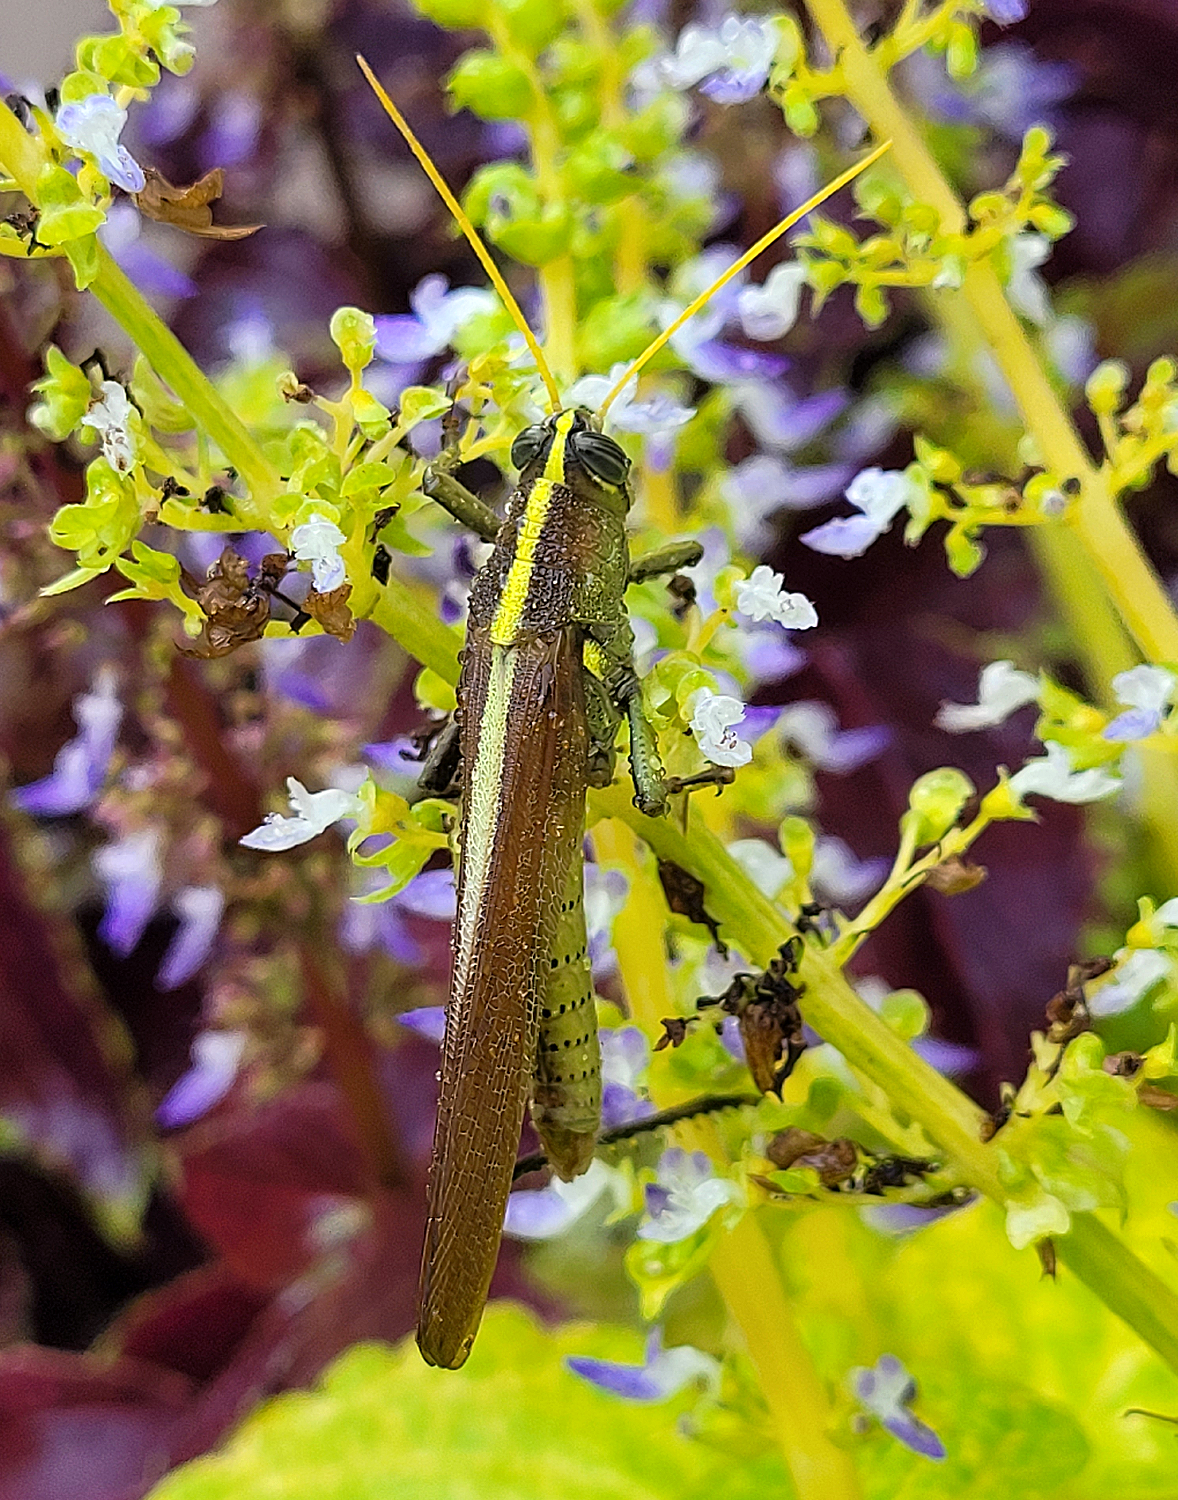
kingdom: Animalia
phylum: Arthropoda
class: Insecta
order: Orthoptera
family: Acrididae
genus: Schistocerca
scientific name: Schistocerca obscura
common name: Obscure bird grasshopper
